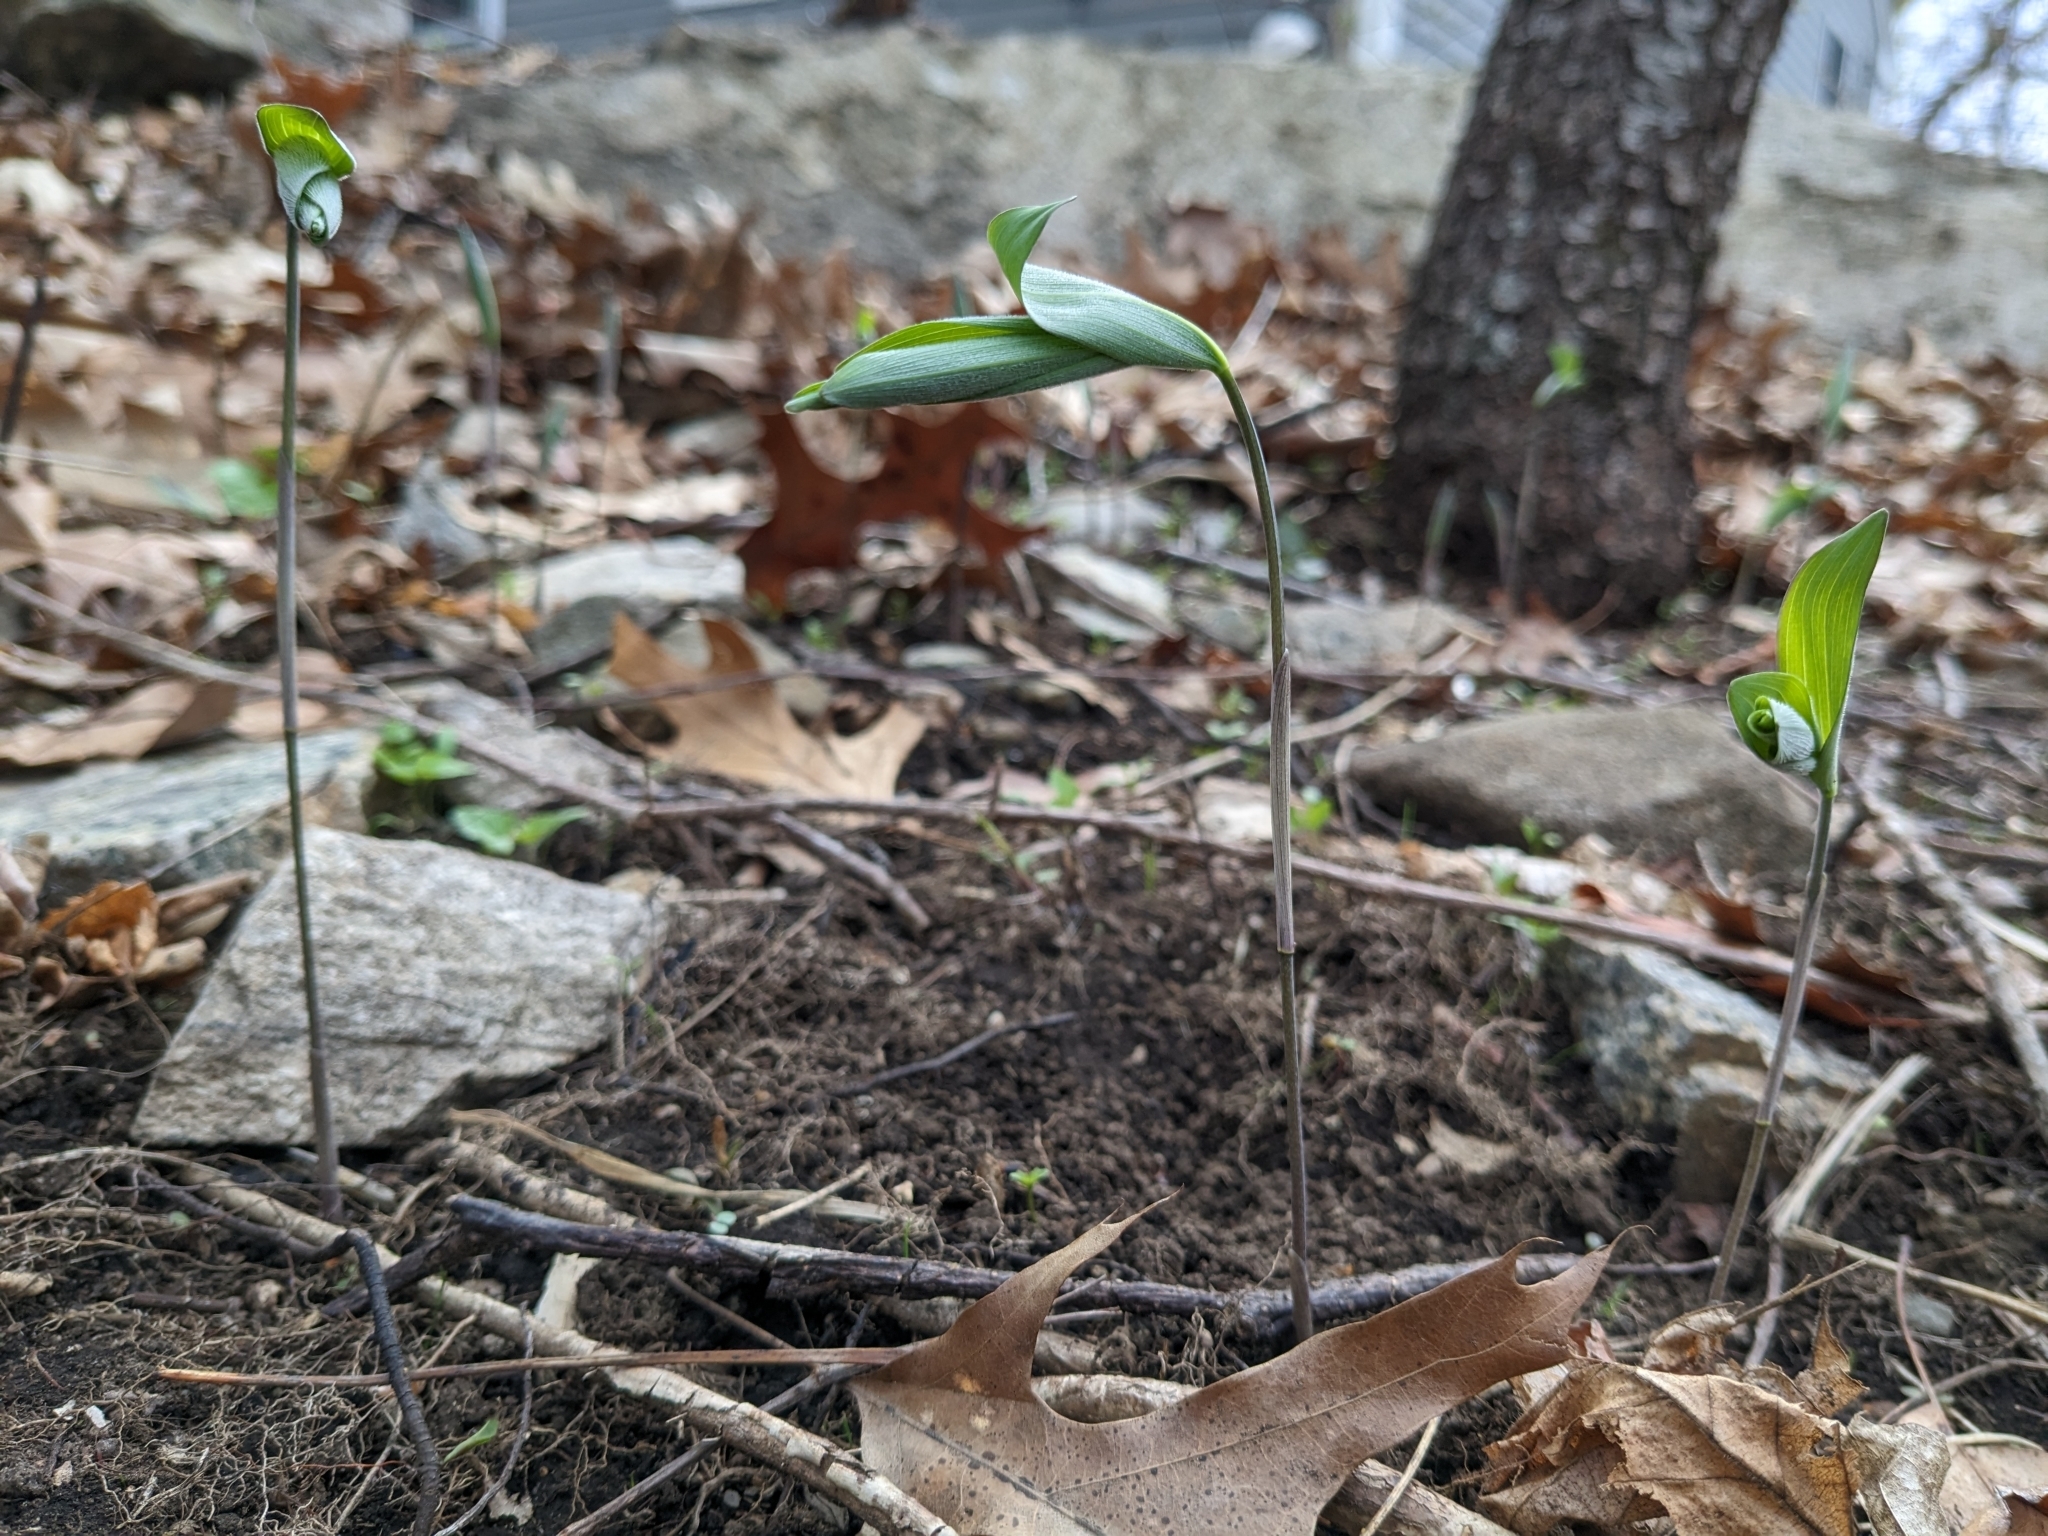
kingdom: Plantae
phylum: Tracheophyta
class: Liliopsida
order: Asparagales
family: Asparagaceae
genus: Polygonatum
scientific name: Polygonatum pubescens
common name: Downy solomon's seal
